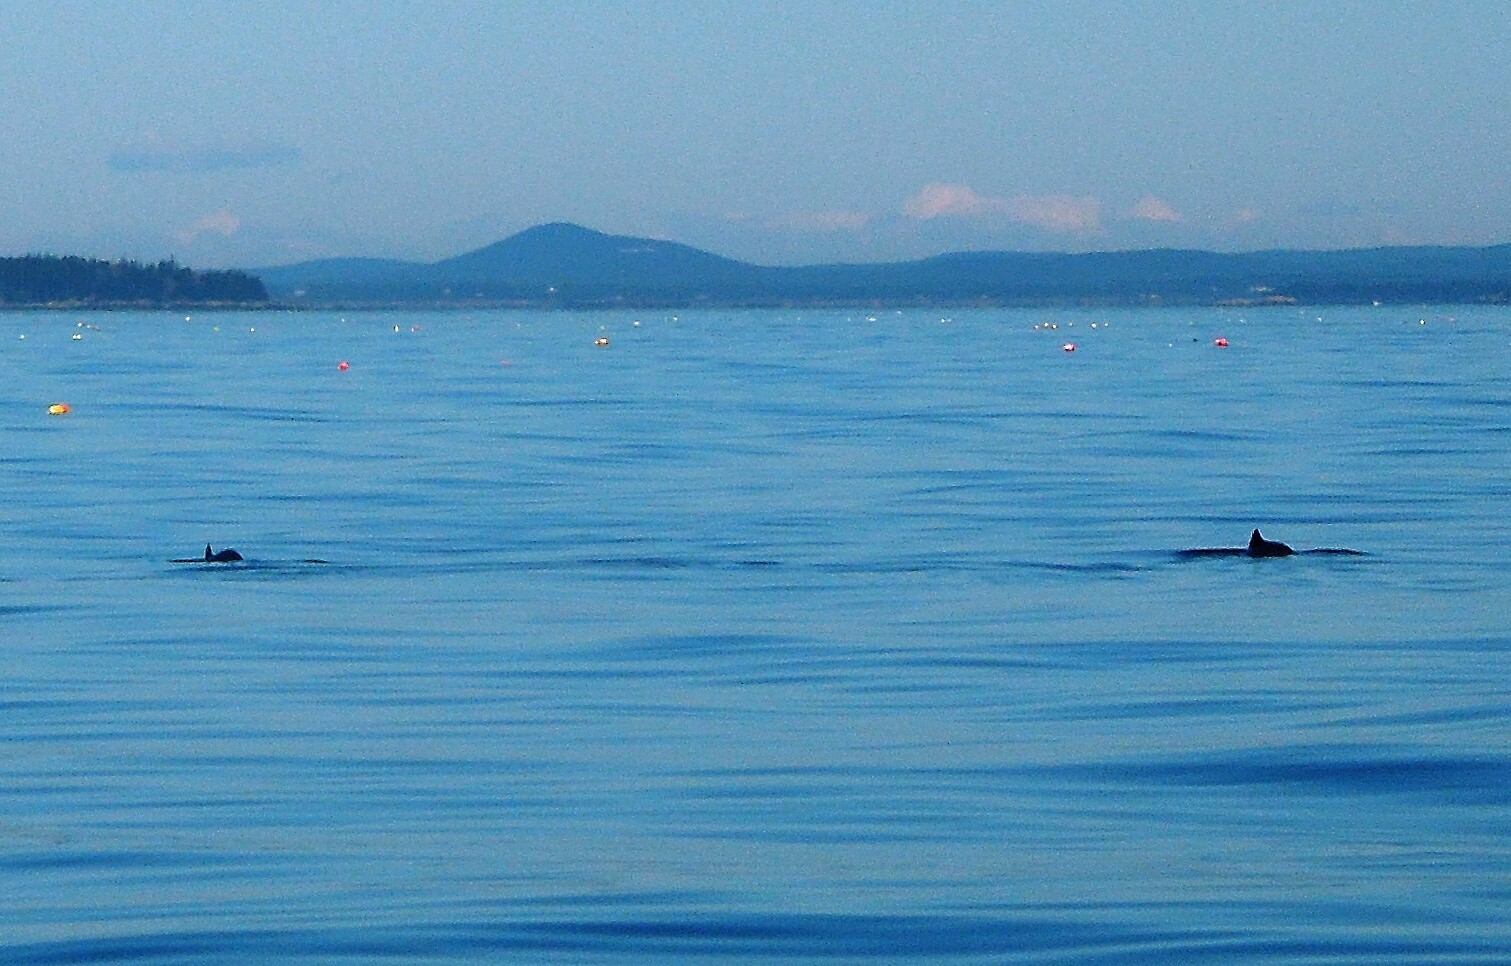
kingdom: Animalia
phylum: Chordata
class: Mammalia
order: Cetacea
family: Phocoenidae
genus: Phocoena
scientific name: Phocoena phocoena
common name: Harbor porpoise
